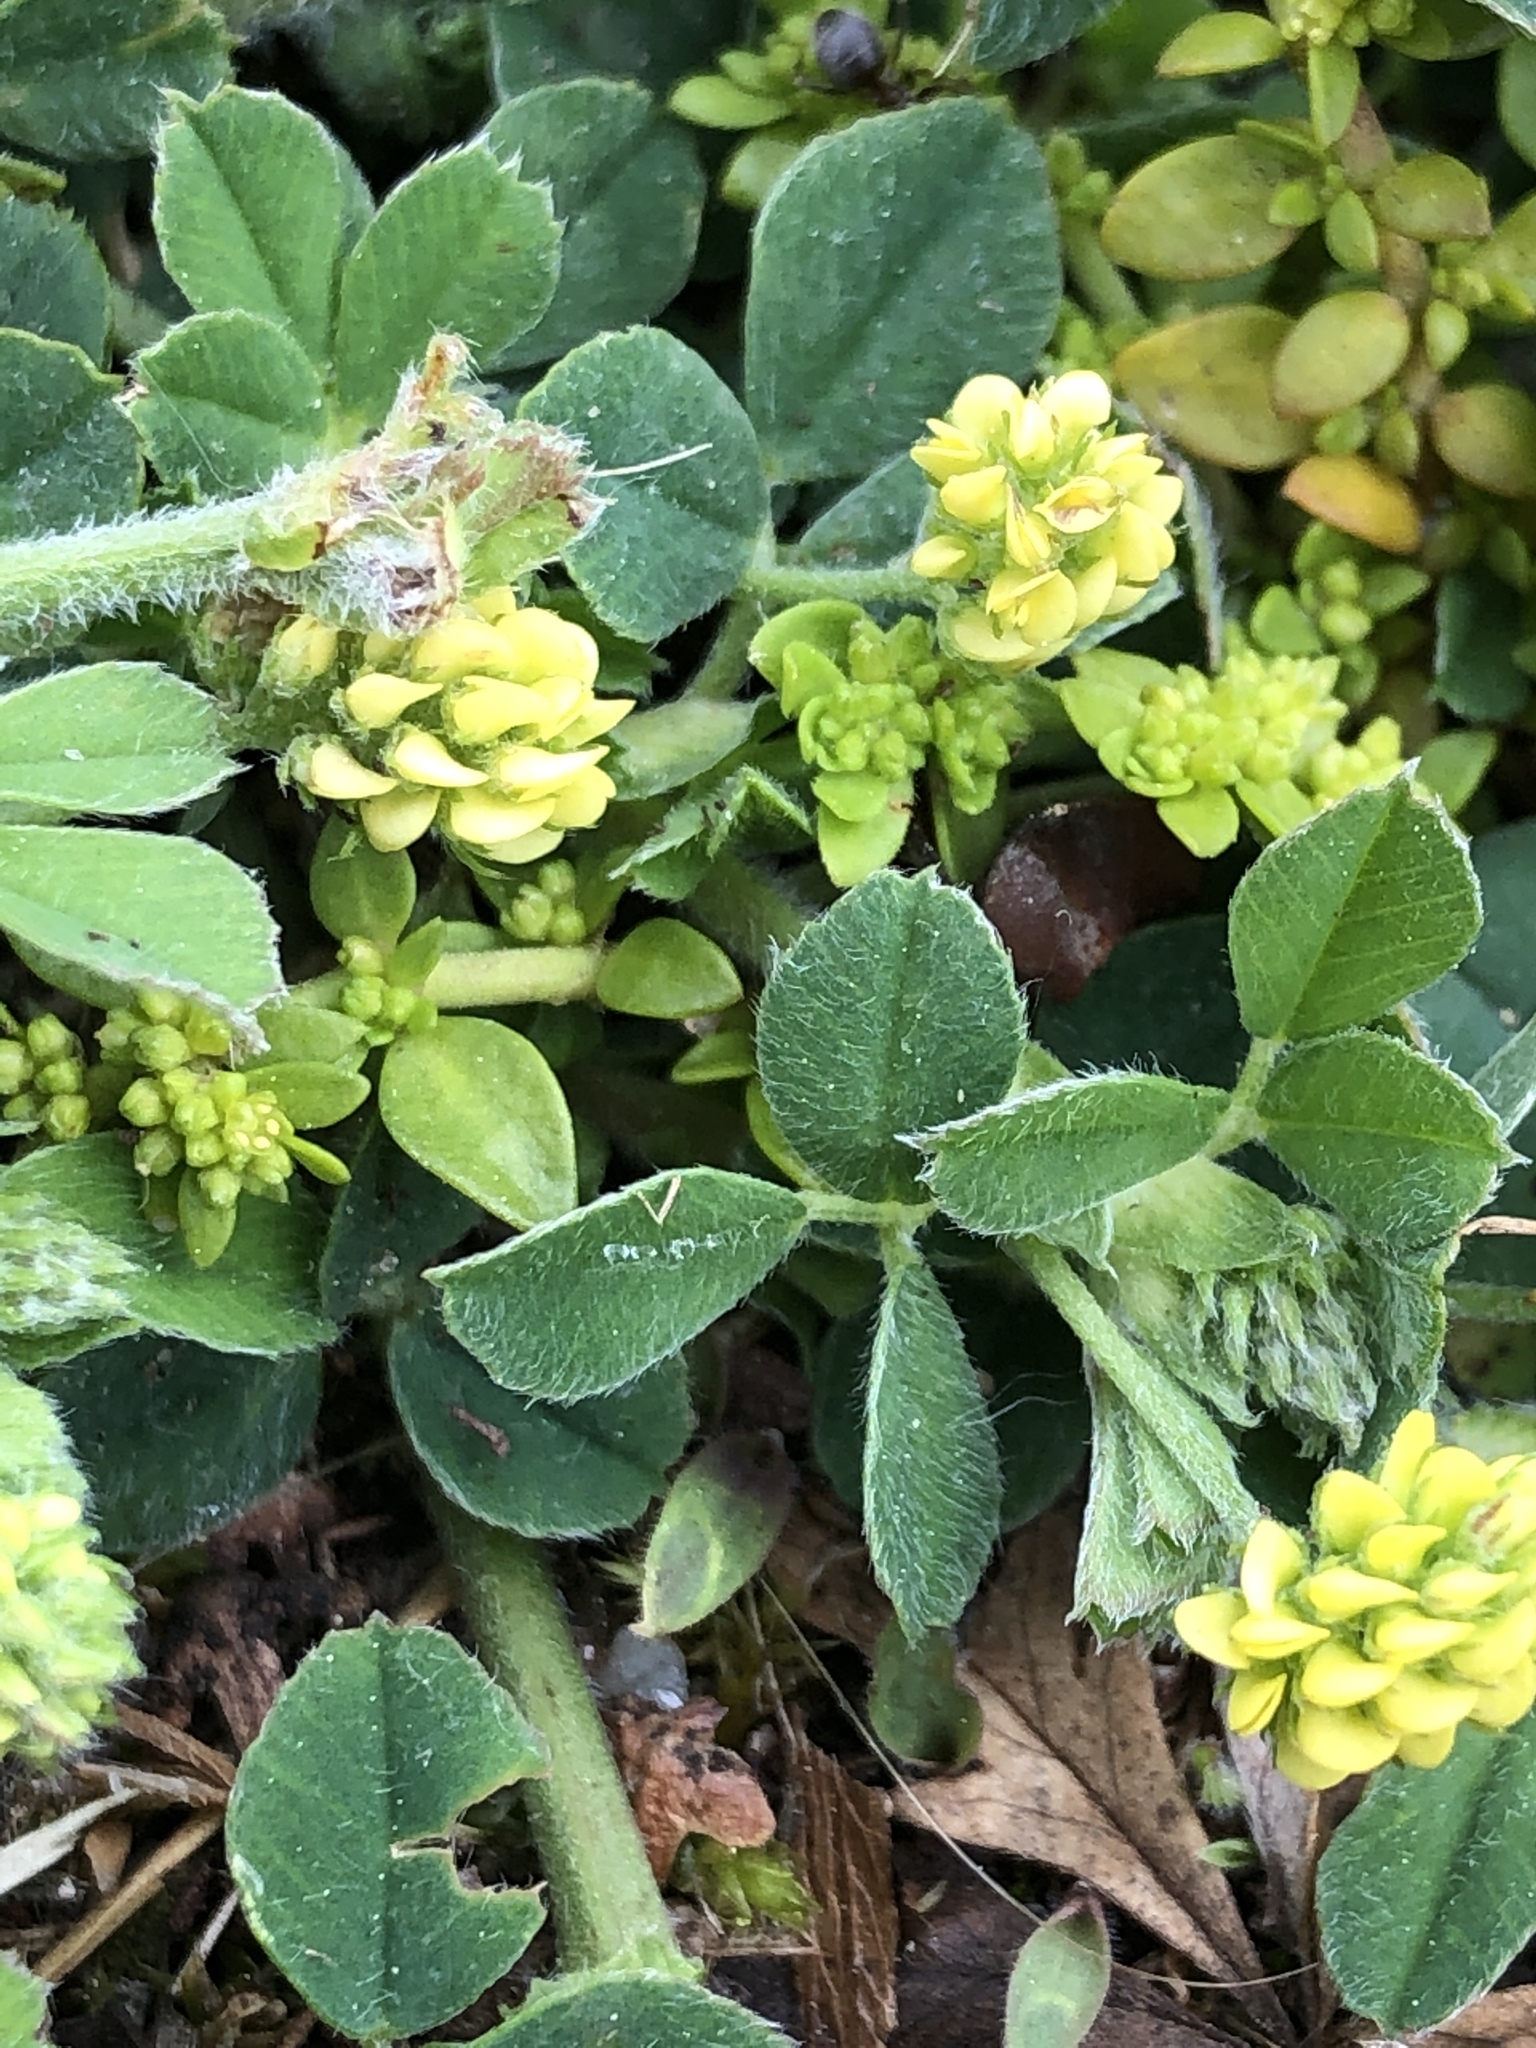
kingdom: Plantae
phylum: Tracheophyta
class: Magnoliopsida
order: Fabales
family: Fabaceae
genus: Medicago
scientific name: Medicago lupulina
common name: Black medick
